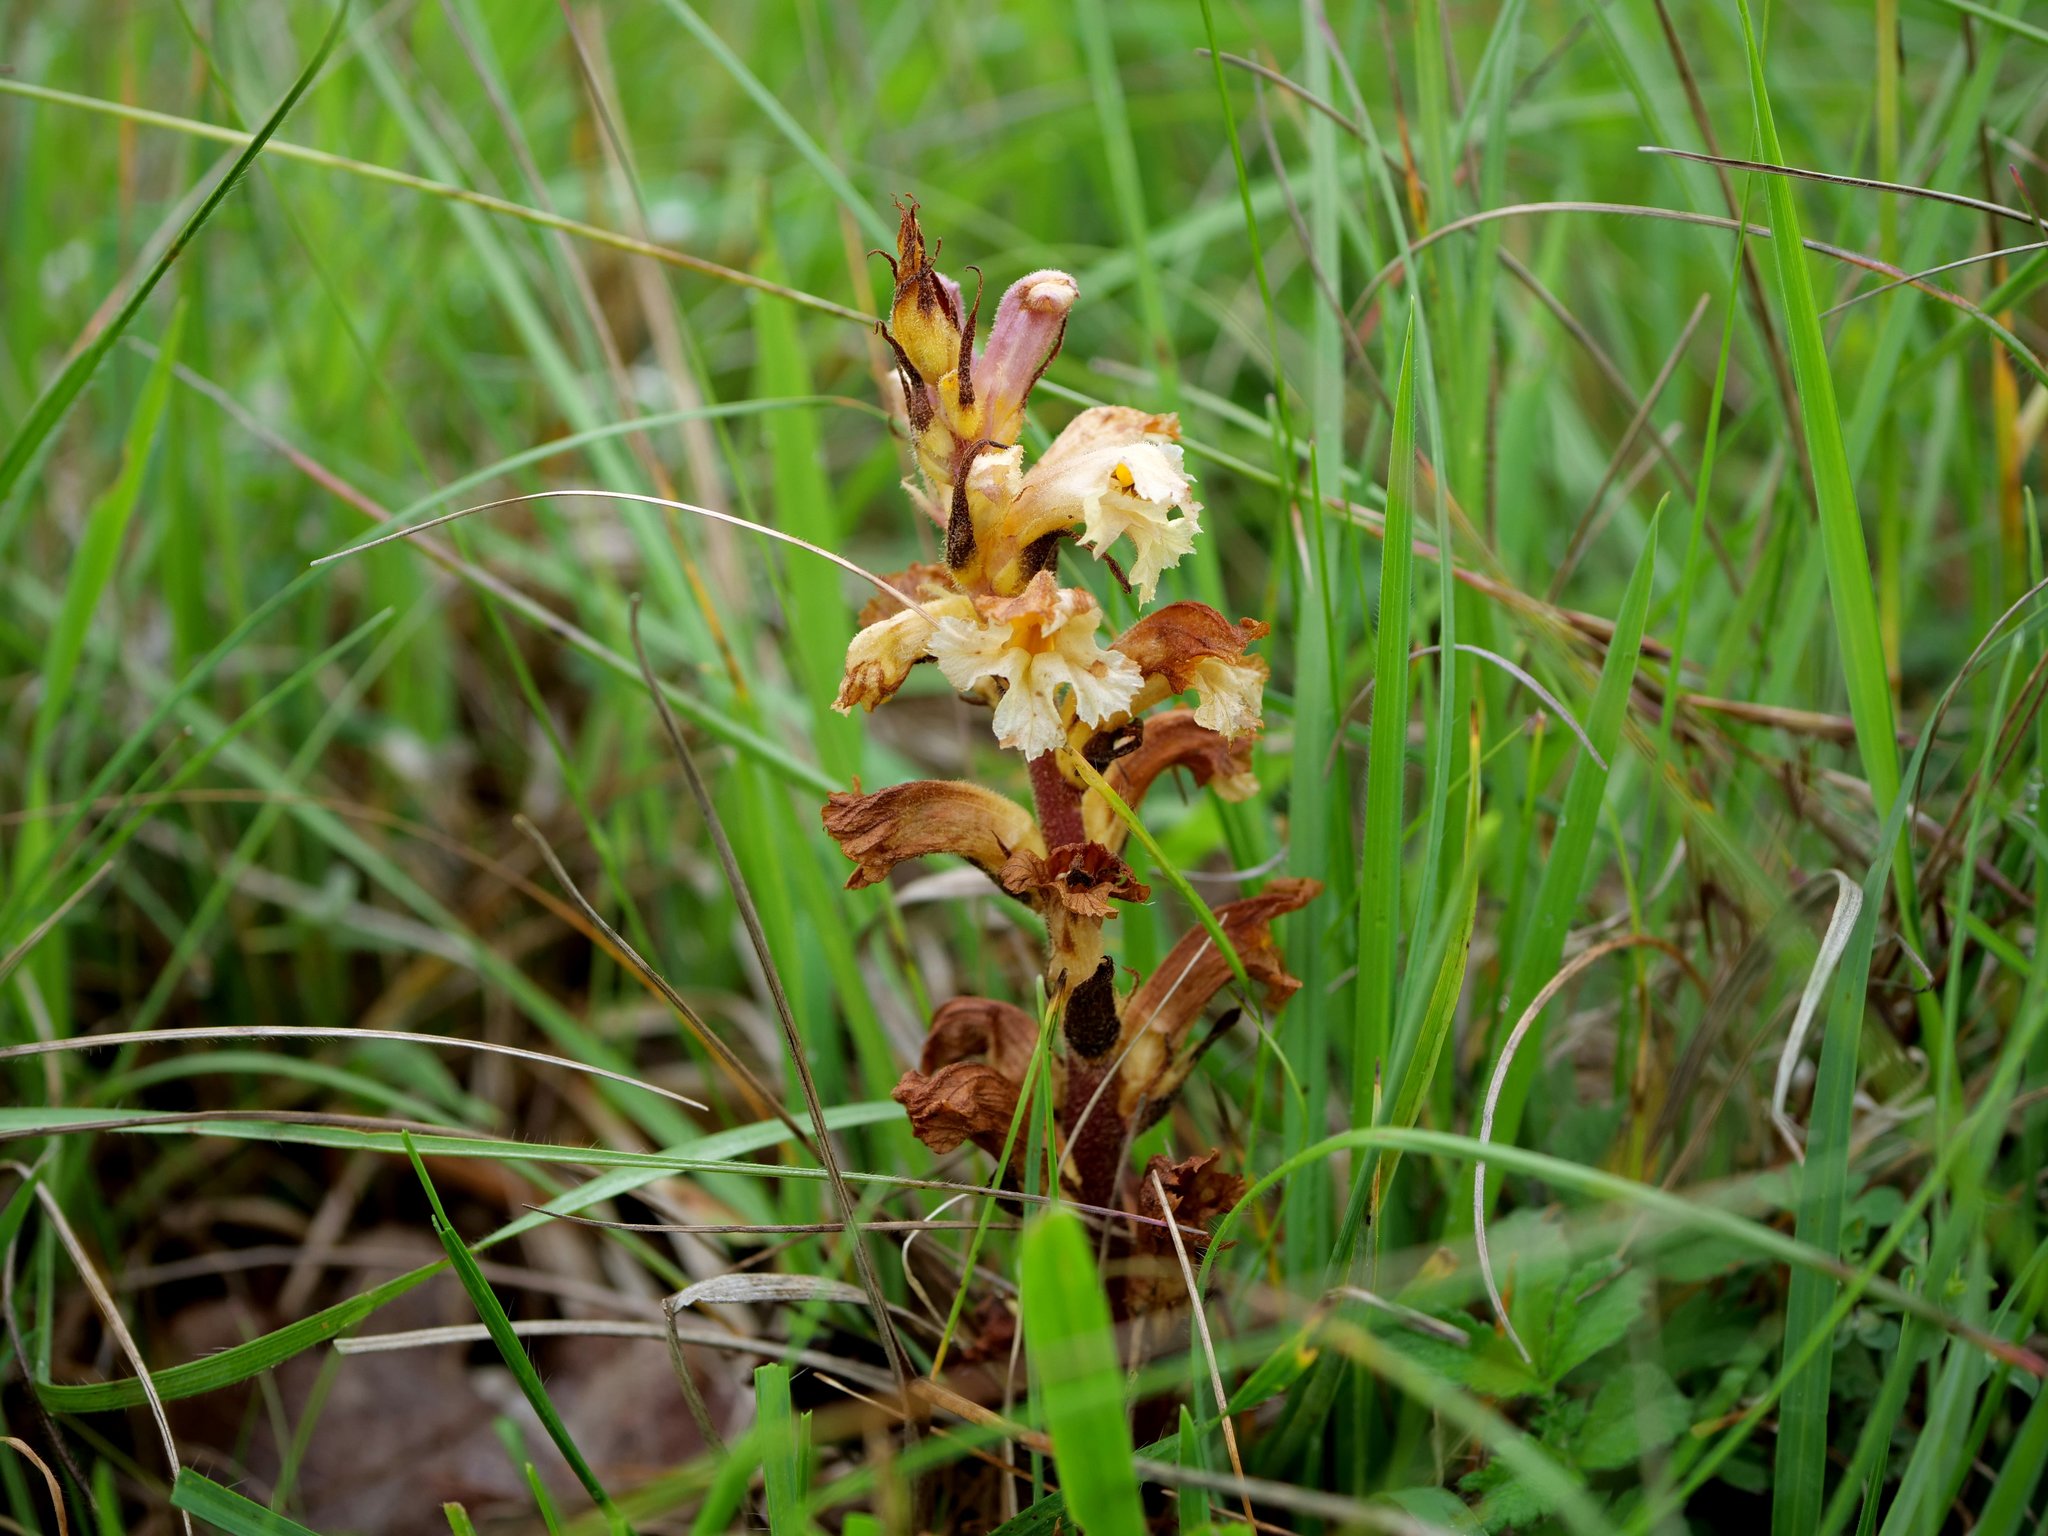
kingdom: Plantae
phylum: Tracheophyta
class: Magnoliopsida
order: Lamiales
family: Orobanchaceae
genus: Orobanche
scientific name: Orobanche lutea
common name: Yellow broomrape
